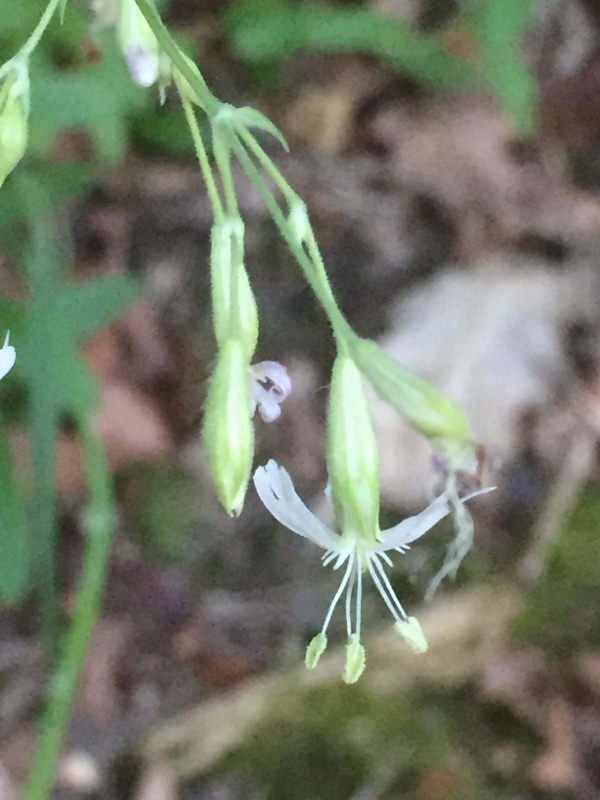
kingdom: Plantae
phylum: Tracheophyta
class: Magnoliopsida
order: Caryophyllales
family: Caryophyllaceae
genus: Silene
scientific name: Silene nutans
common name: Nottingham catchfly
